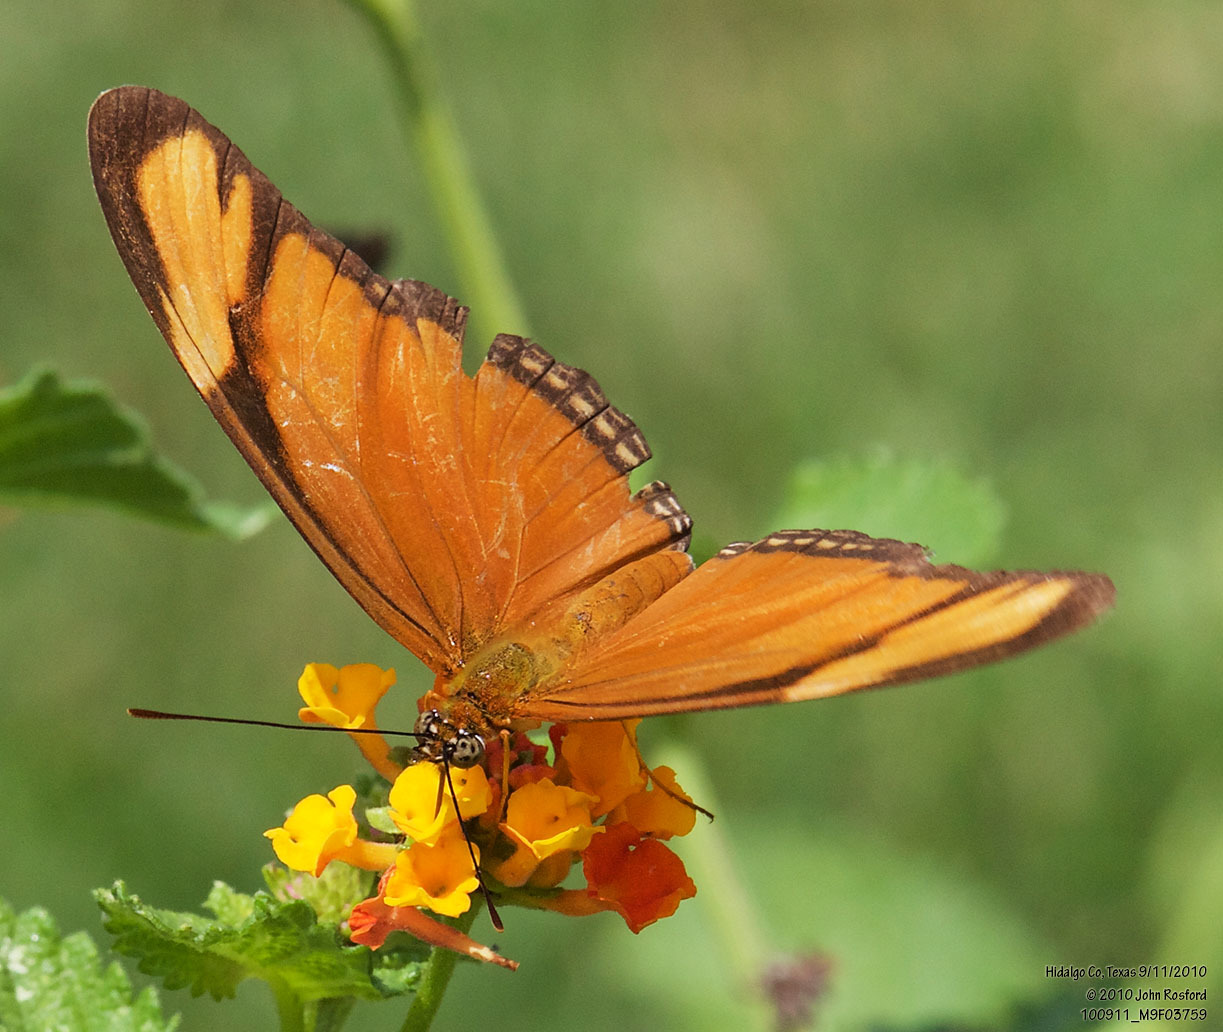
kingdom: Animalia
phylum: Arthropoda
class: Insecta
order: Lepidoptera
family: Nymphalidae
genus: Dryas
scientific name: Dryas iulia
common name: Flambeau
